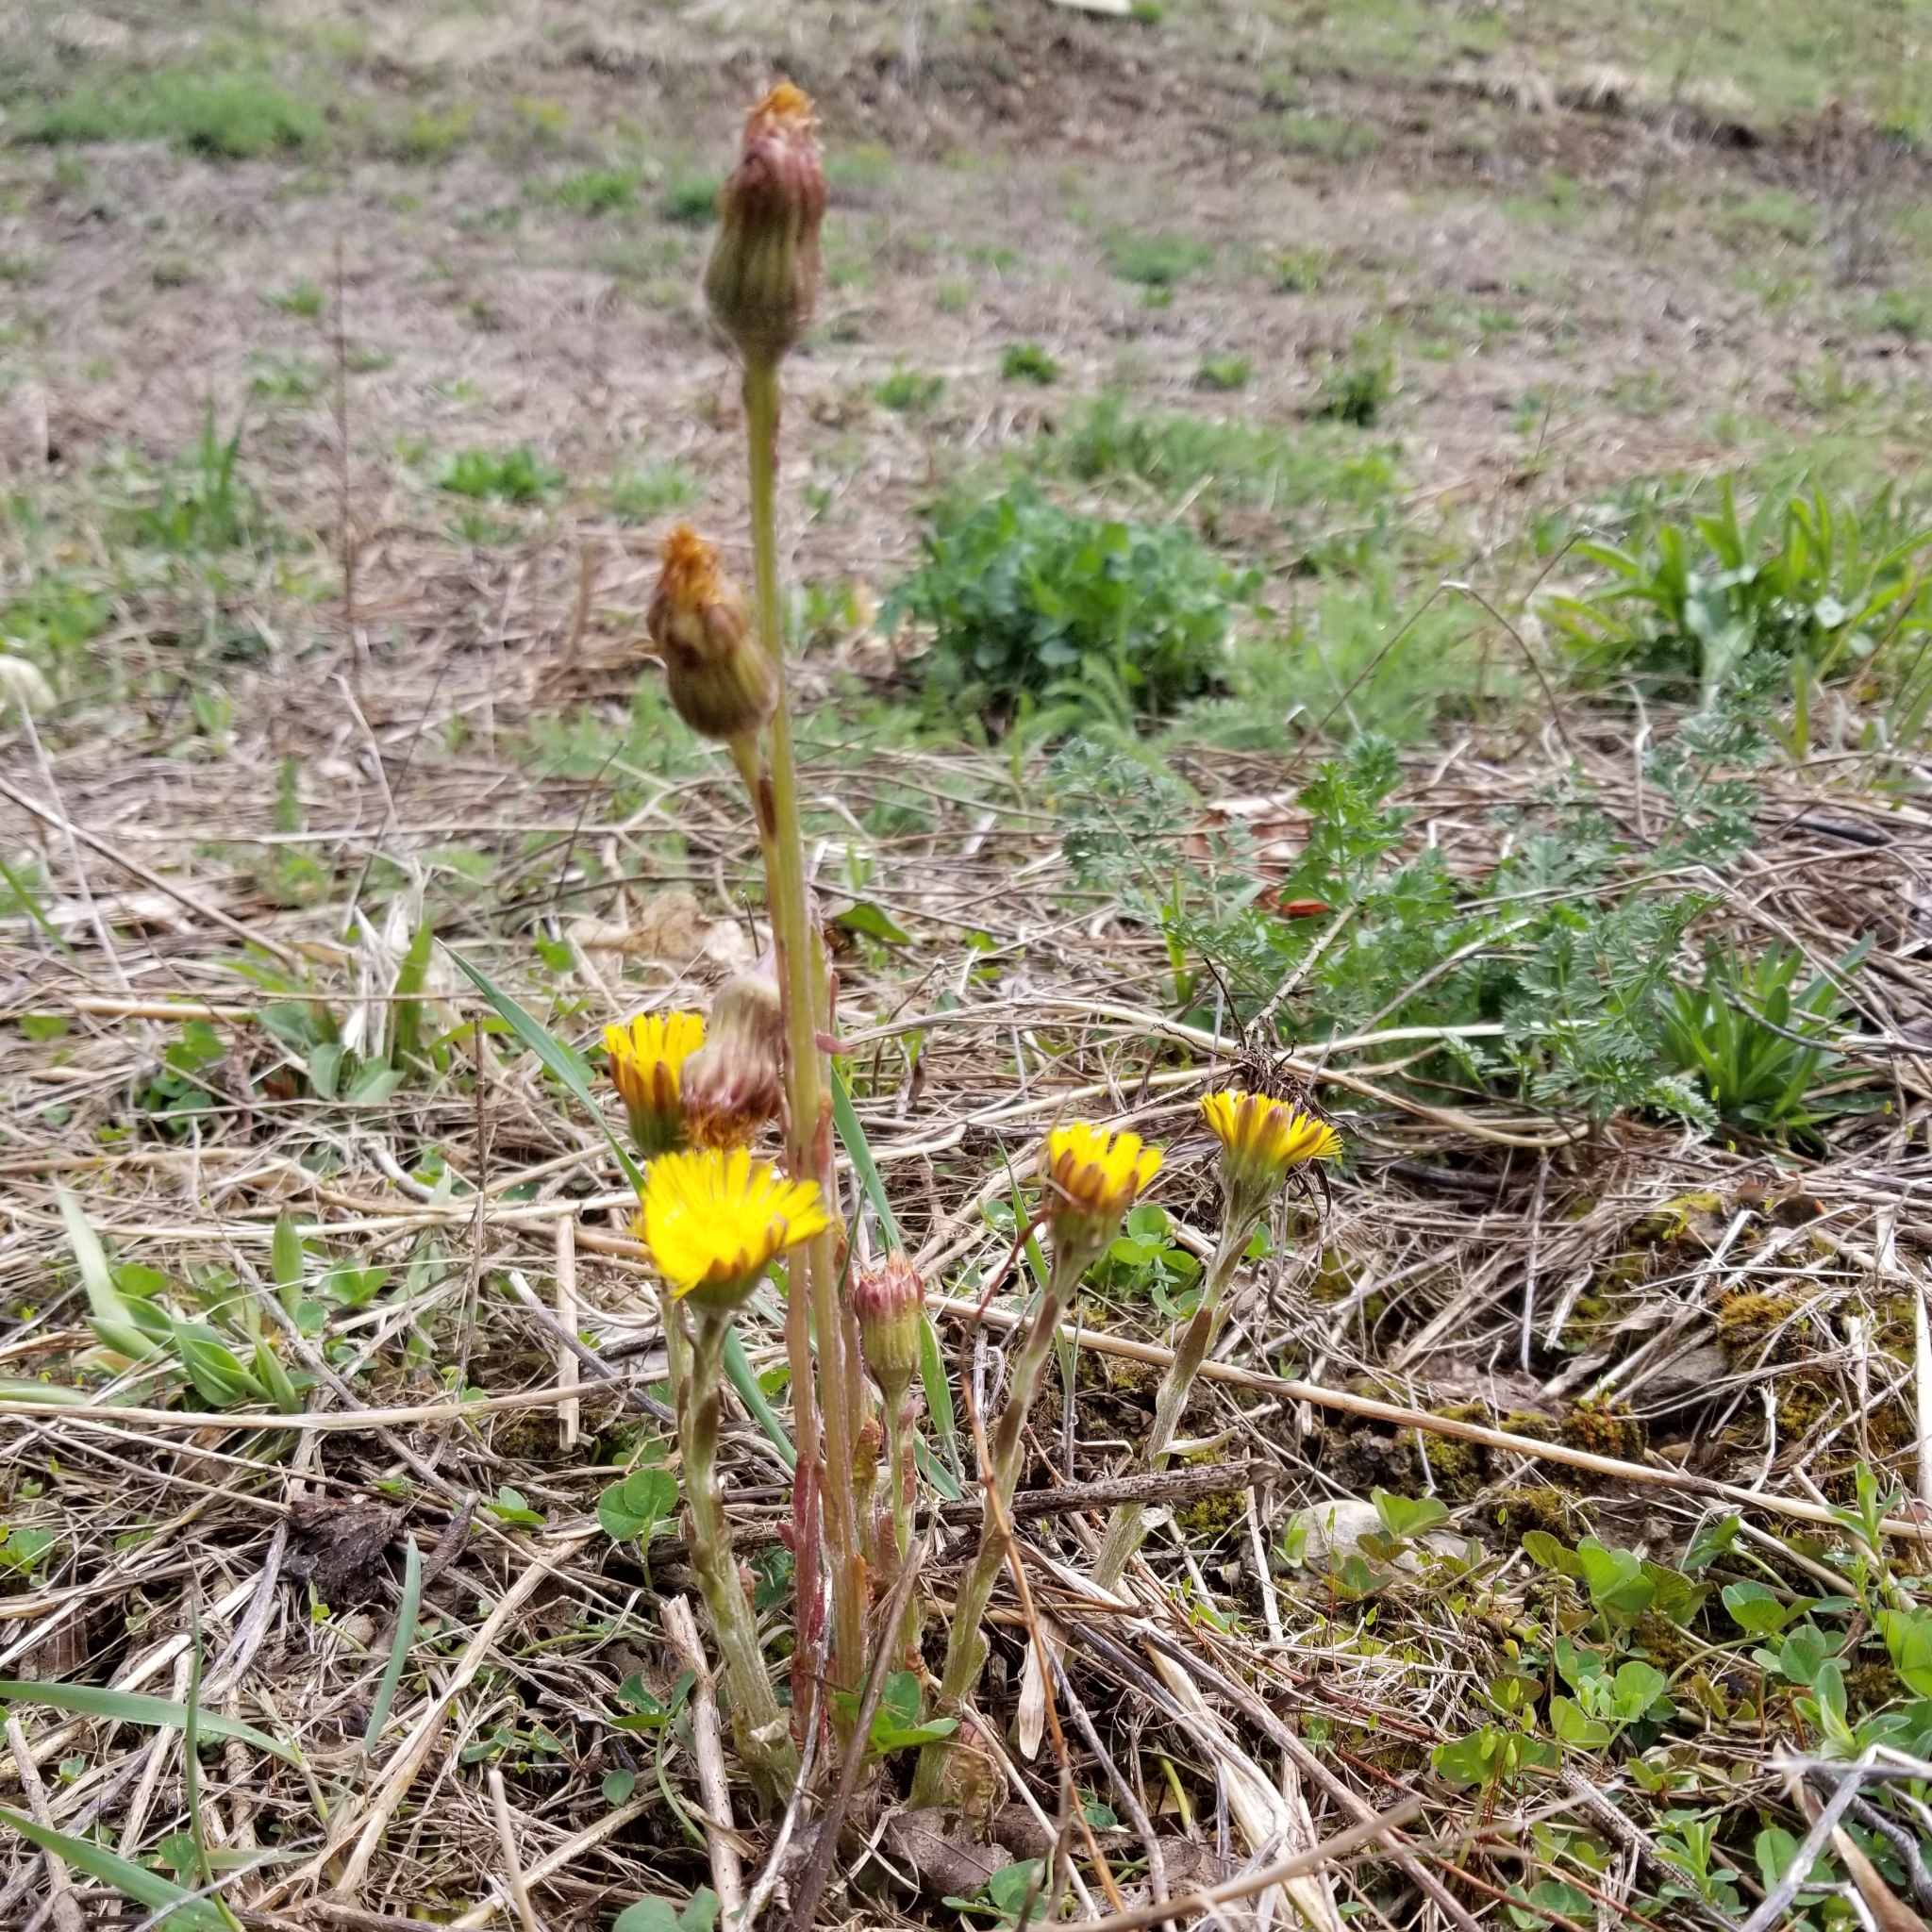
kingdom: Plantae
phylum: Tracheophyta
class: Magnoliopsida
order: Asterales
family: Asteraceae
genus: Tussilago
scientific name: Tussilago farfara
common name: Coltsfoot
